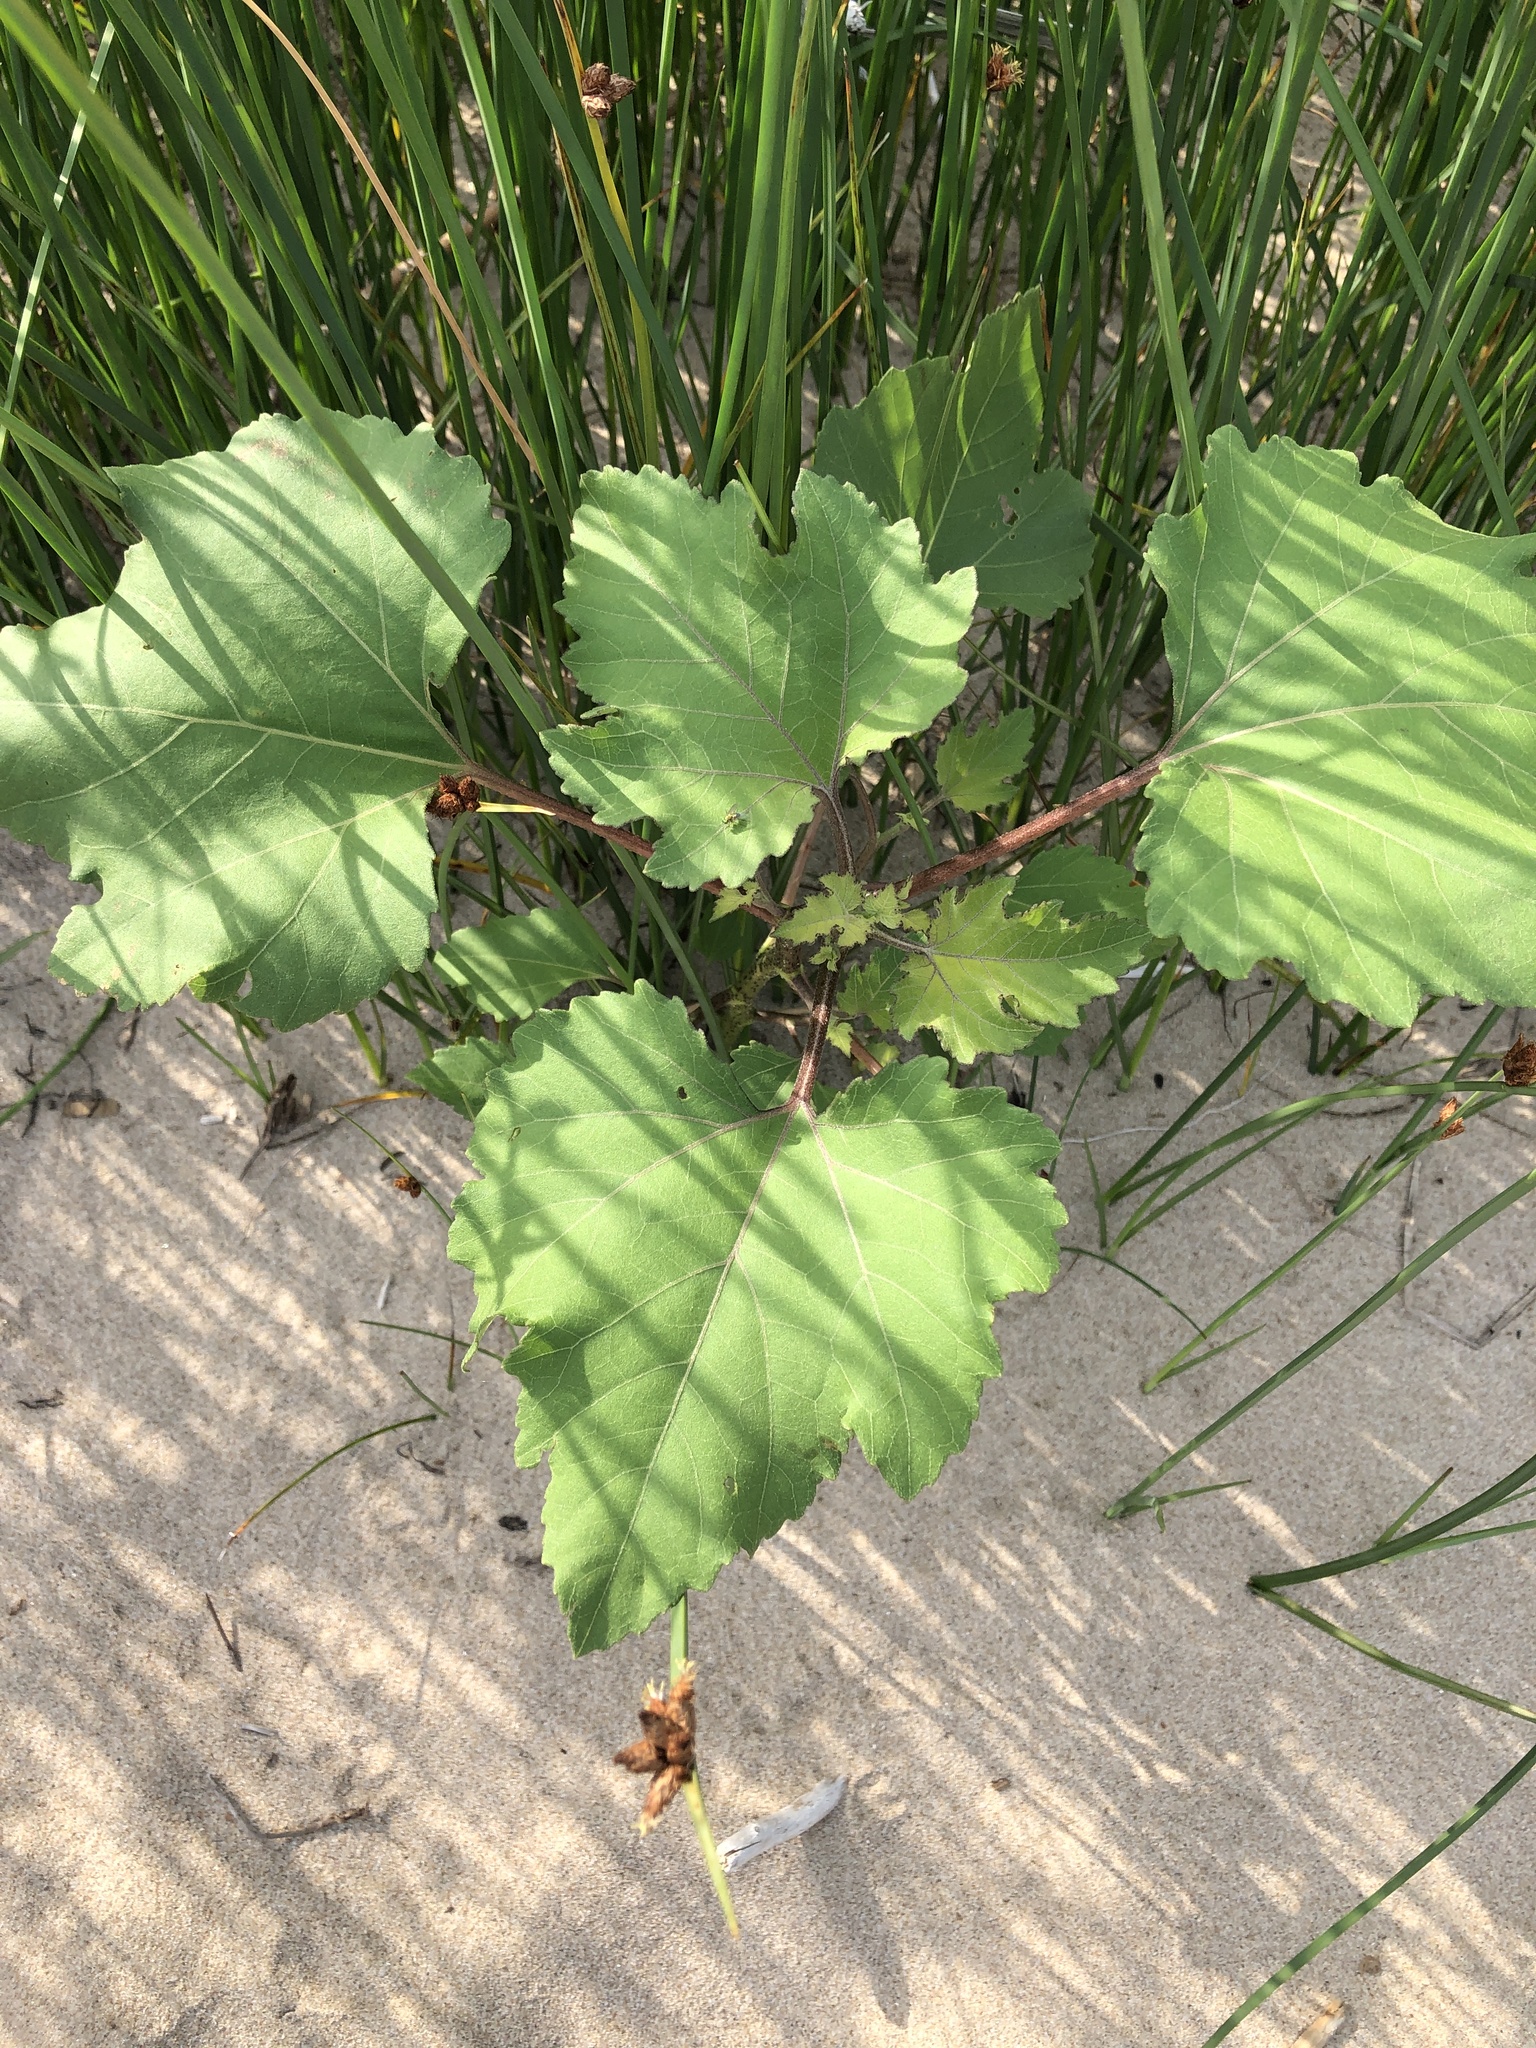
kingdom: Plantae
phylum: Tracheophyta
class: Magnoliopsida
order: Asterales
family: Asteraceae
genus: Xanthium
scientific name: Xanthium strumarium
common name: Rough cocklebur
